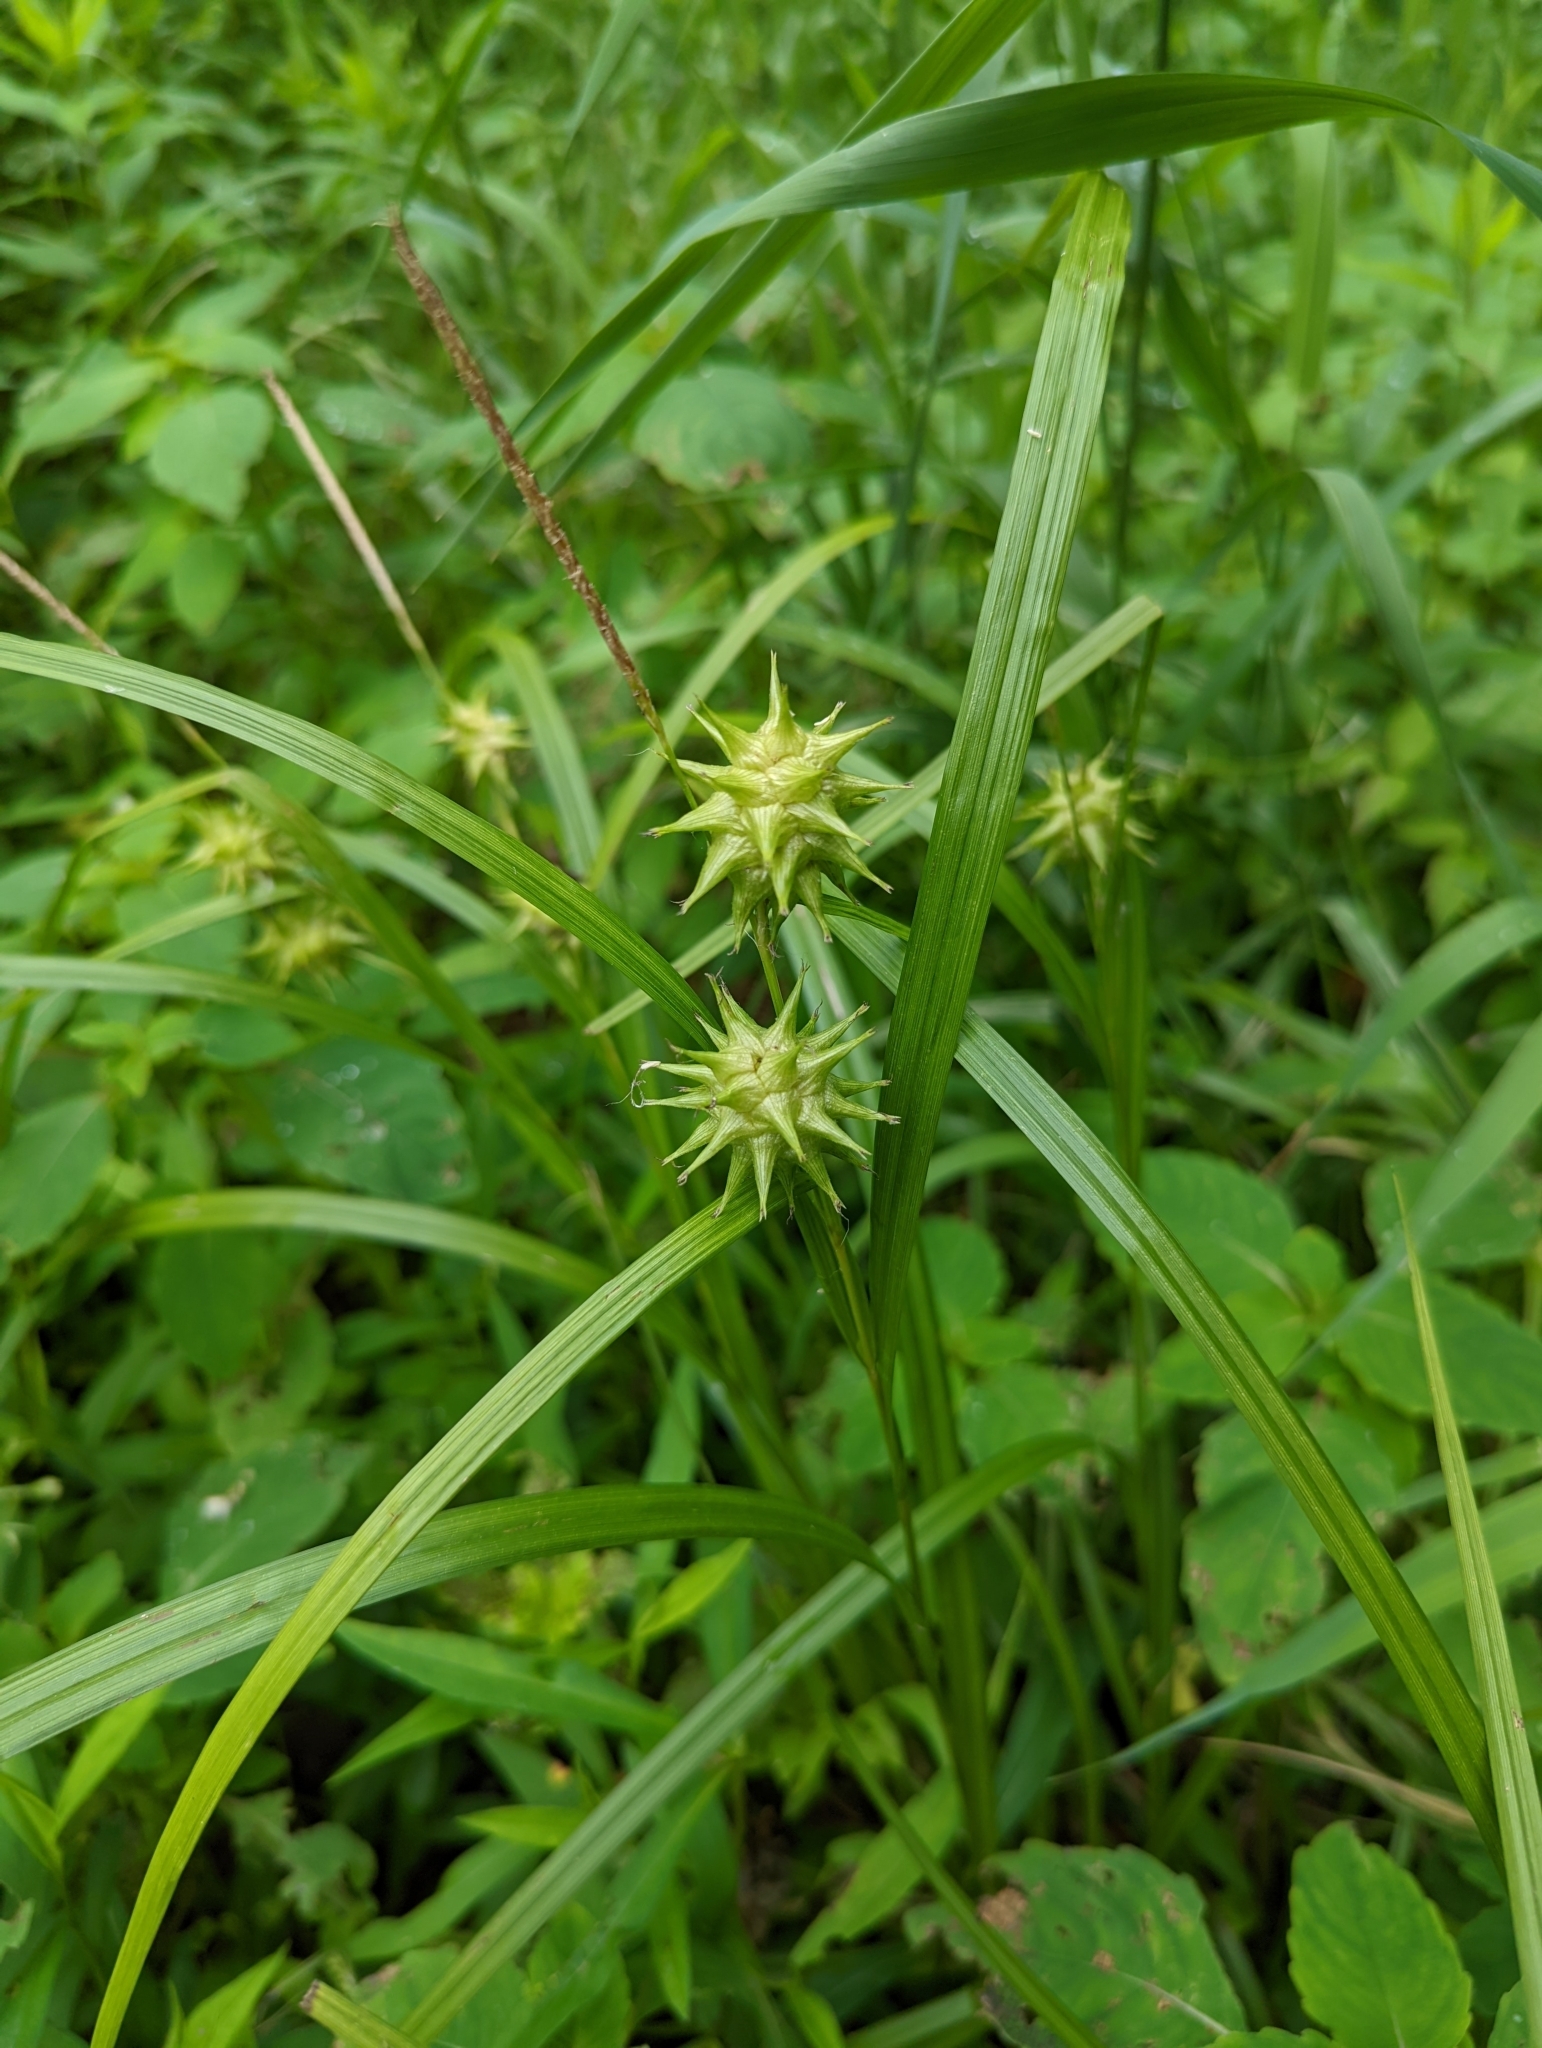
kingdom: Plantae
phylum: Tracheophyta
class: Liliopsida
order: Poales
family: Cyperaceae
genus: Carex
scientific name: Carex grayi
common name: Asa gray's sedge
